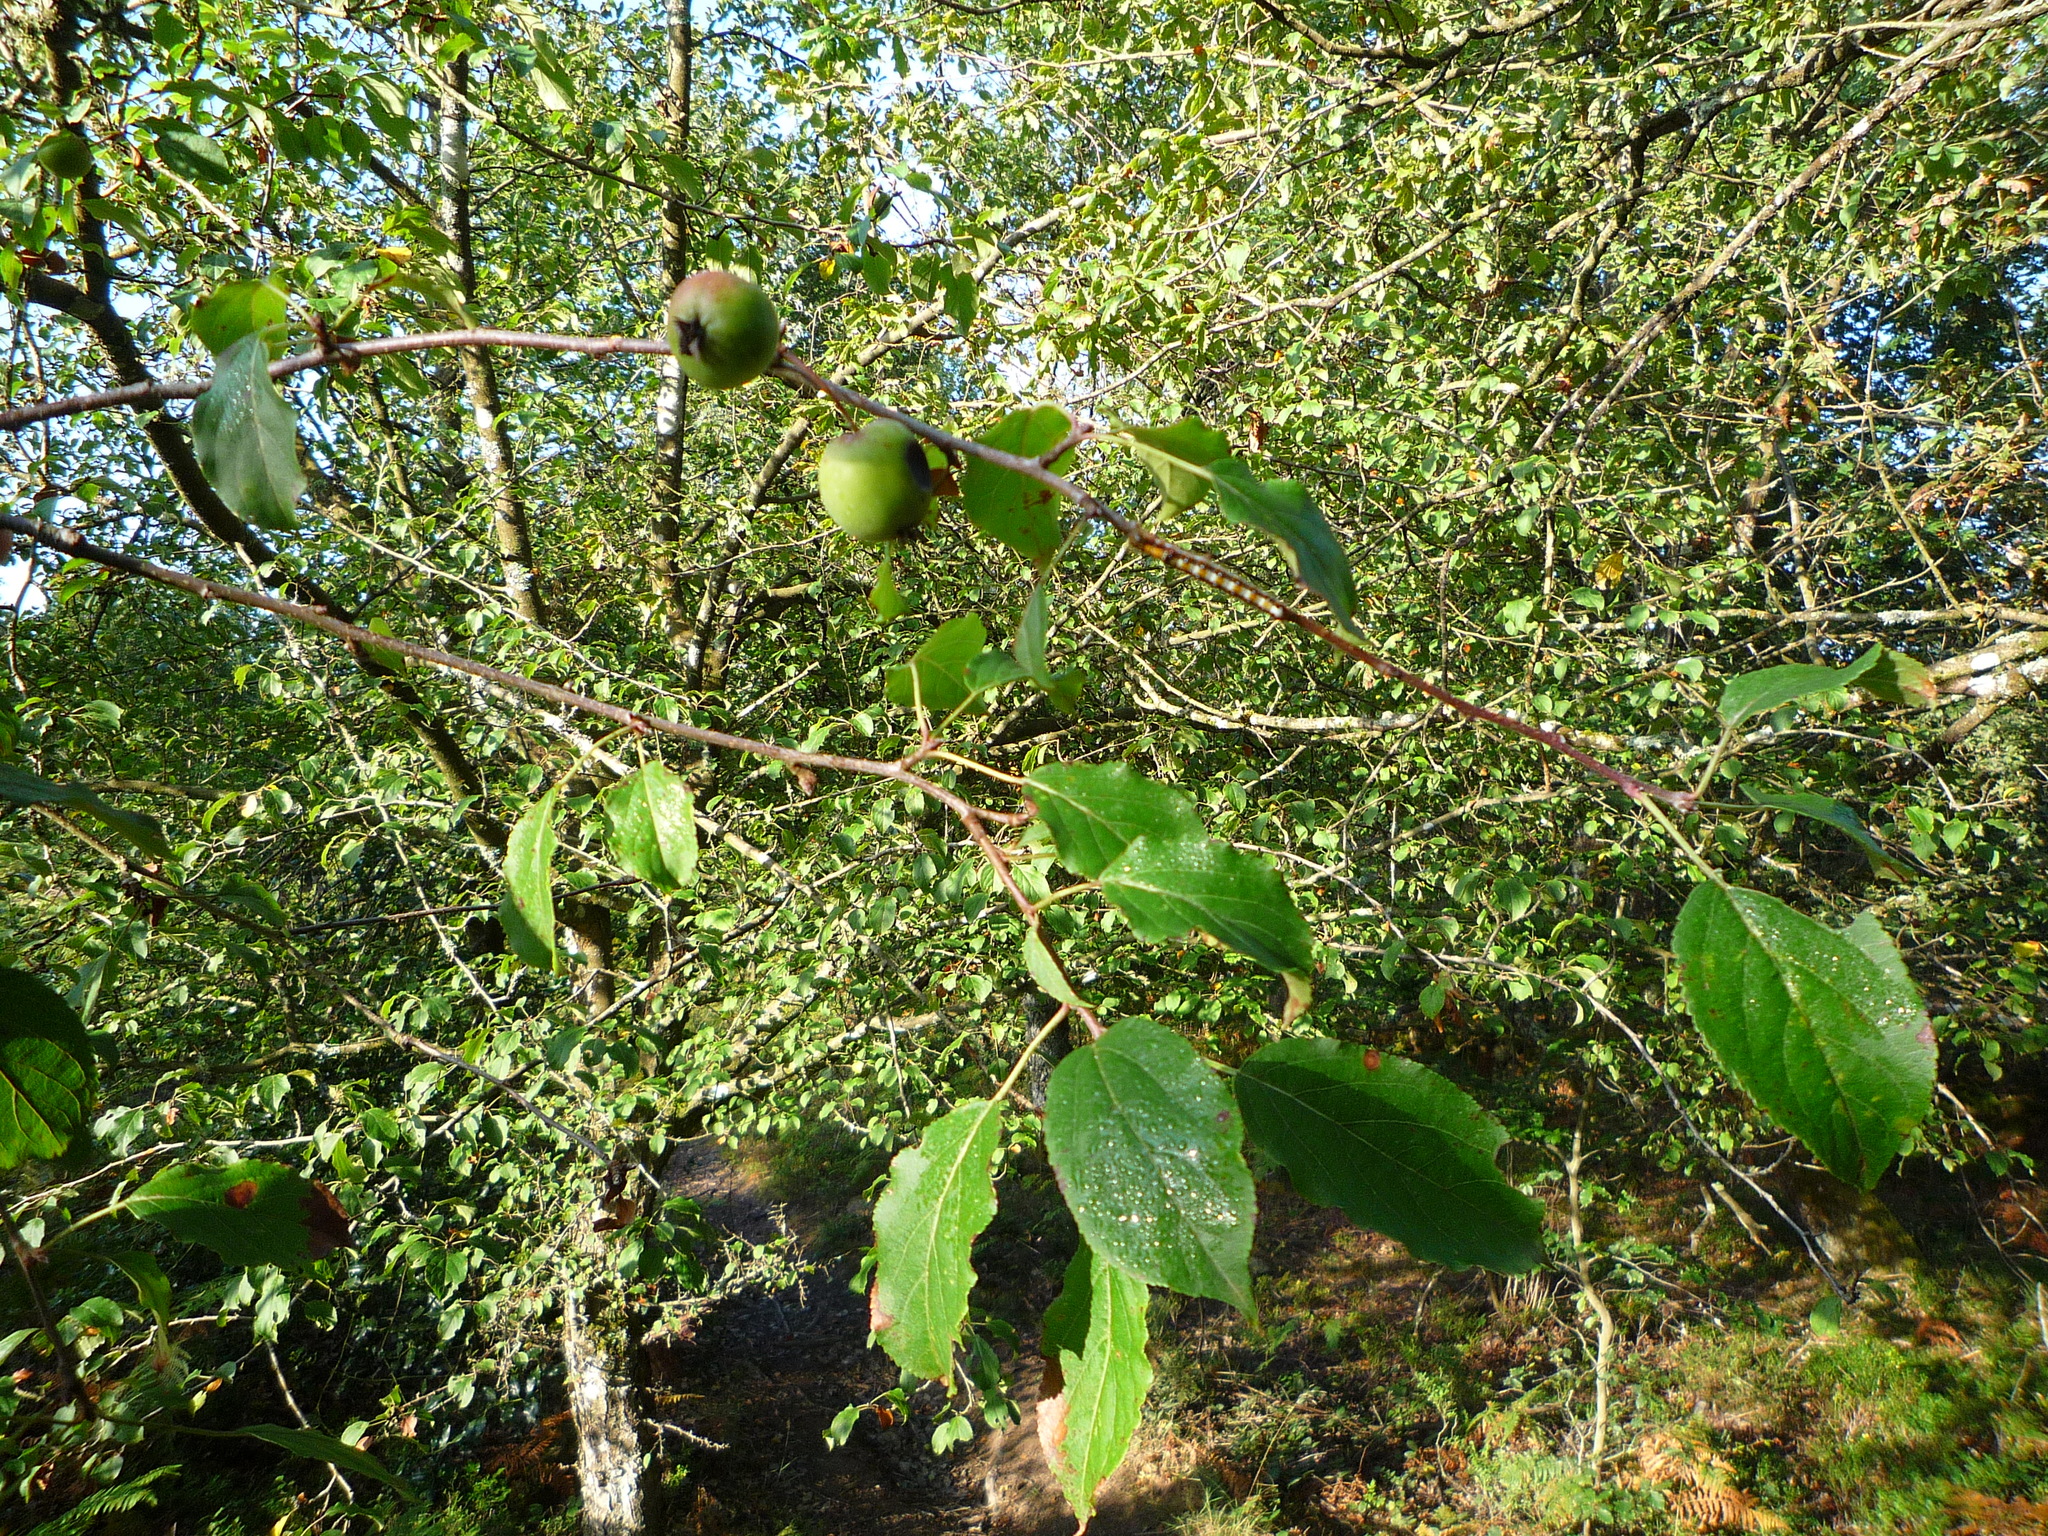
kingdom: Plantae
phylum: Tracheophyta
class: Magnoliopsida
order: Rosales
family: Rosaceae
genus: Malus
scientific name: Malus sylvestris
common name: Crab apple
